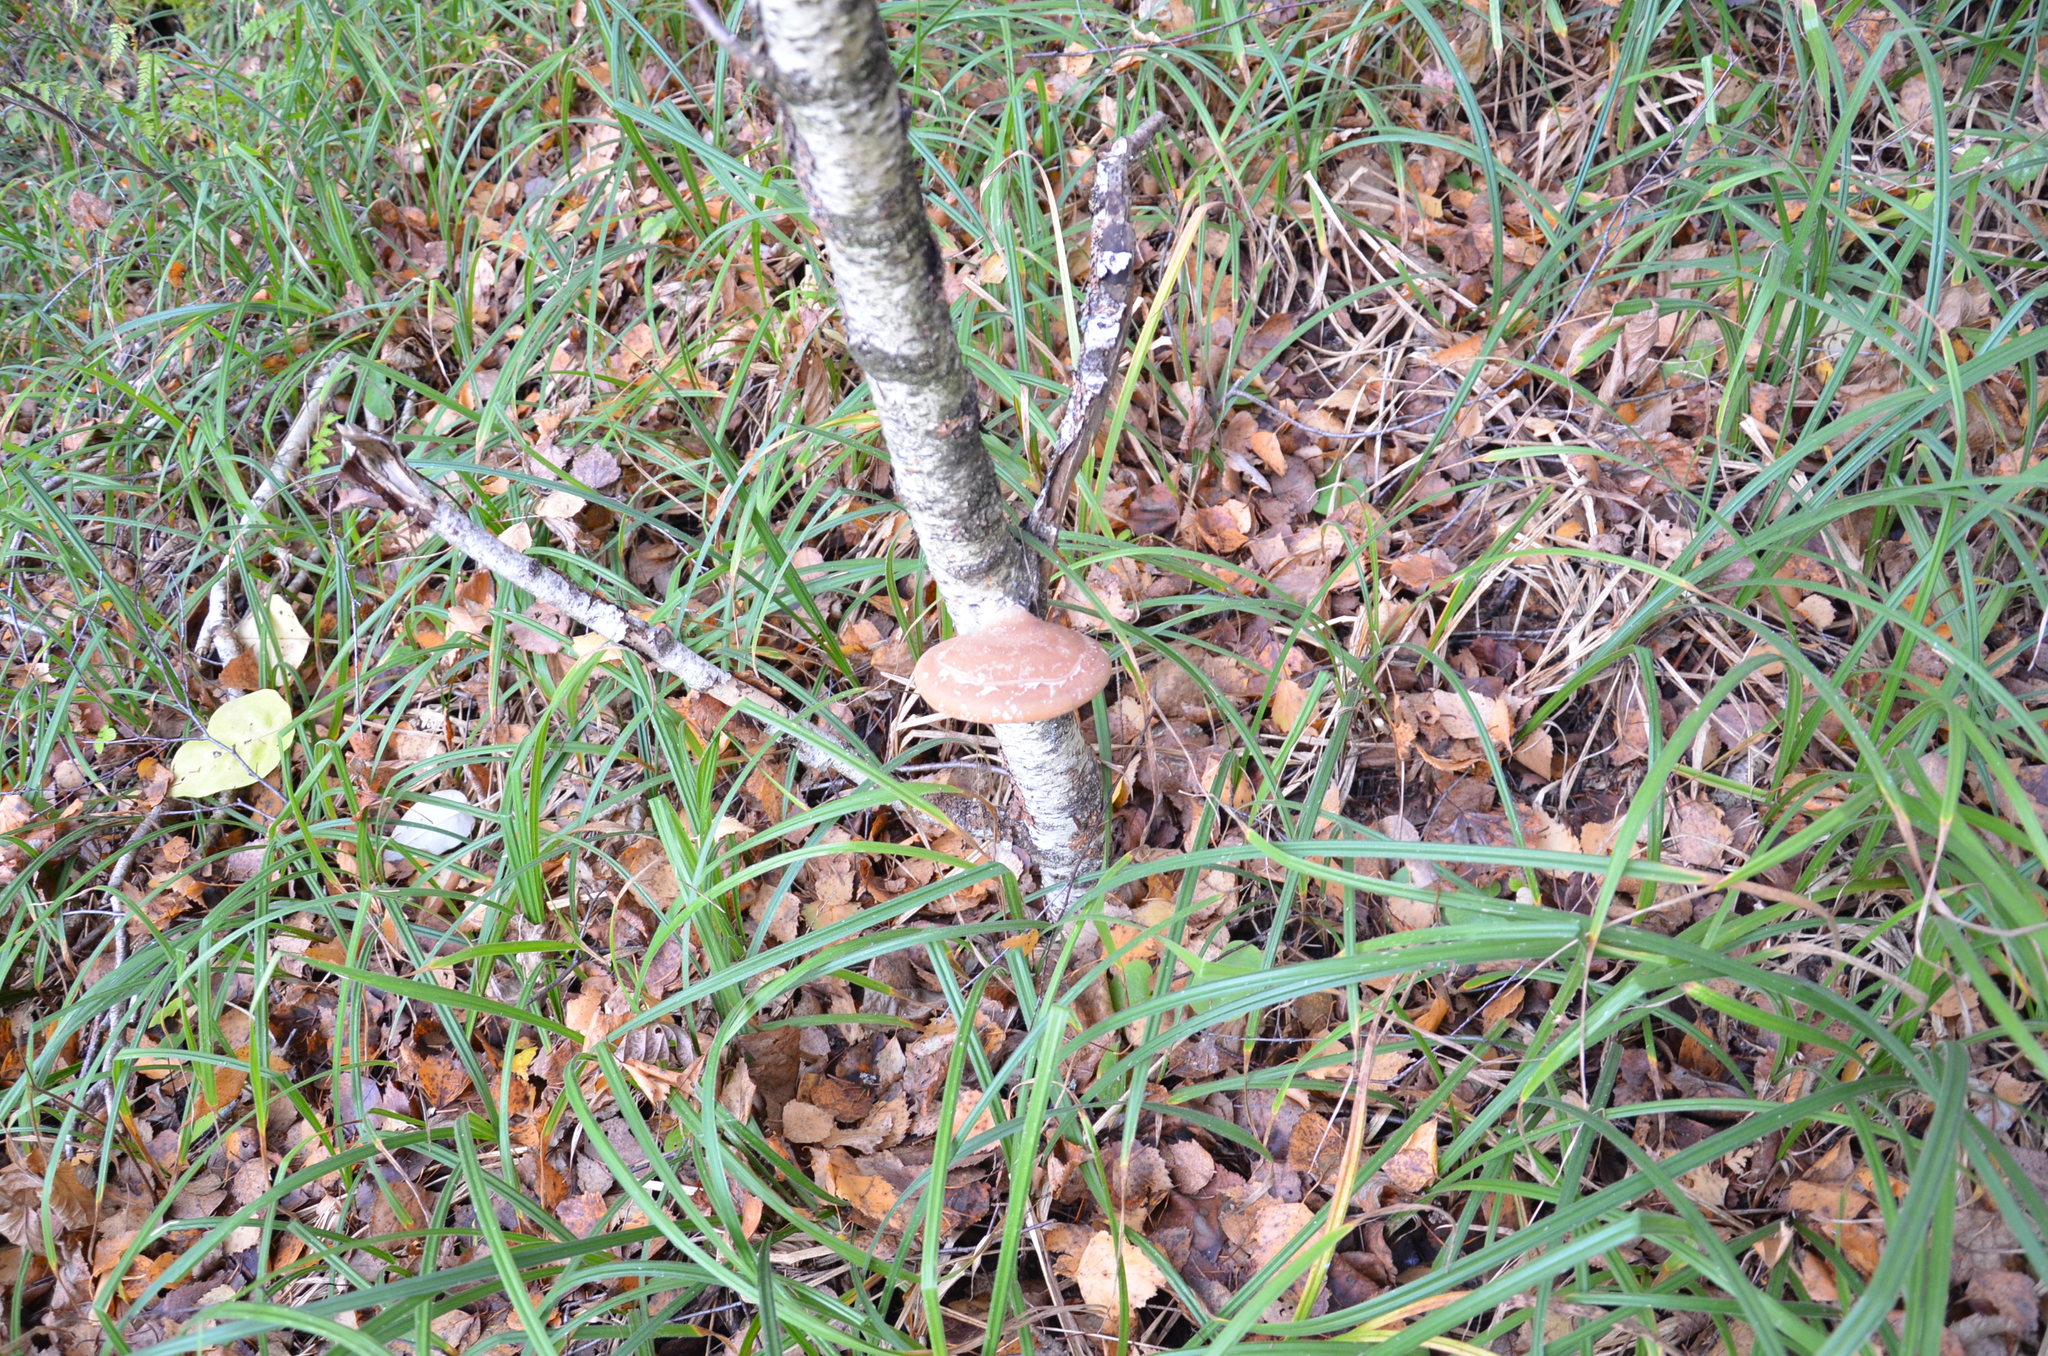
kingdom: Fungi
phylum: Basidiomycota
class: Agaricomycetes
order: Polyporales
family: Fomitopsidaceae
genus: Fomitopsis
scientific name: Fomitopsis betulina
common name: Birch polypore
